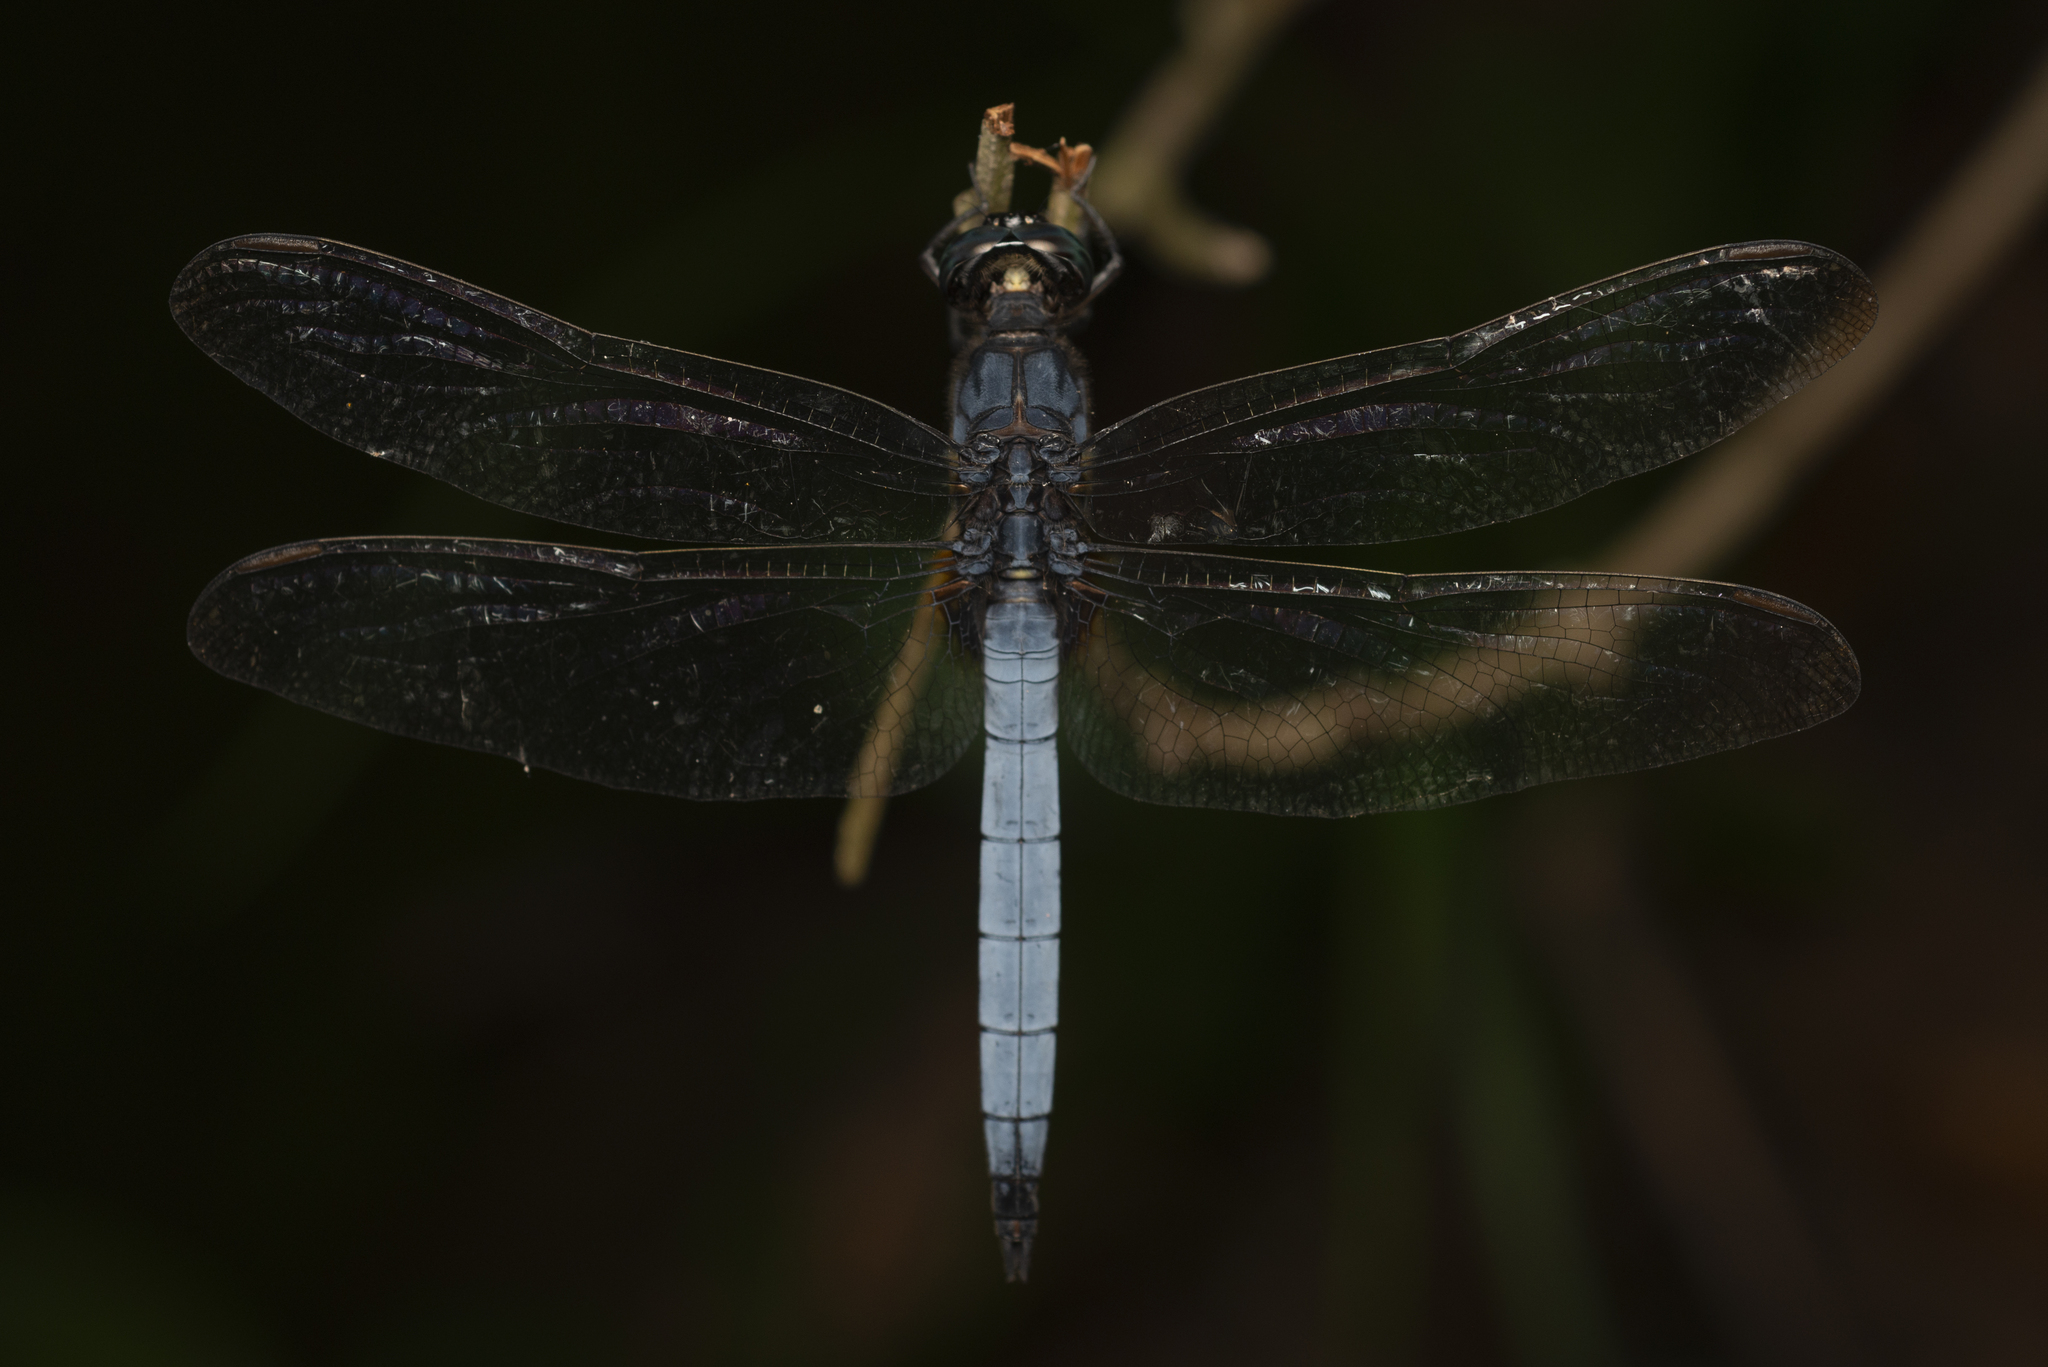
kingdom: Animalia
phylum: Arthropoda
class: Insecta
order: Odonata
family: Libellulidae
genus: Orthetrum
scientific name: Orthetrum glaucum
